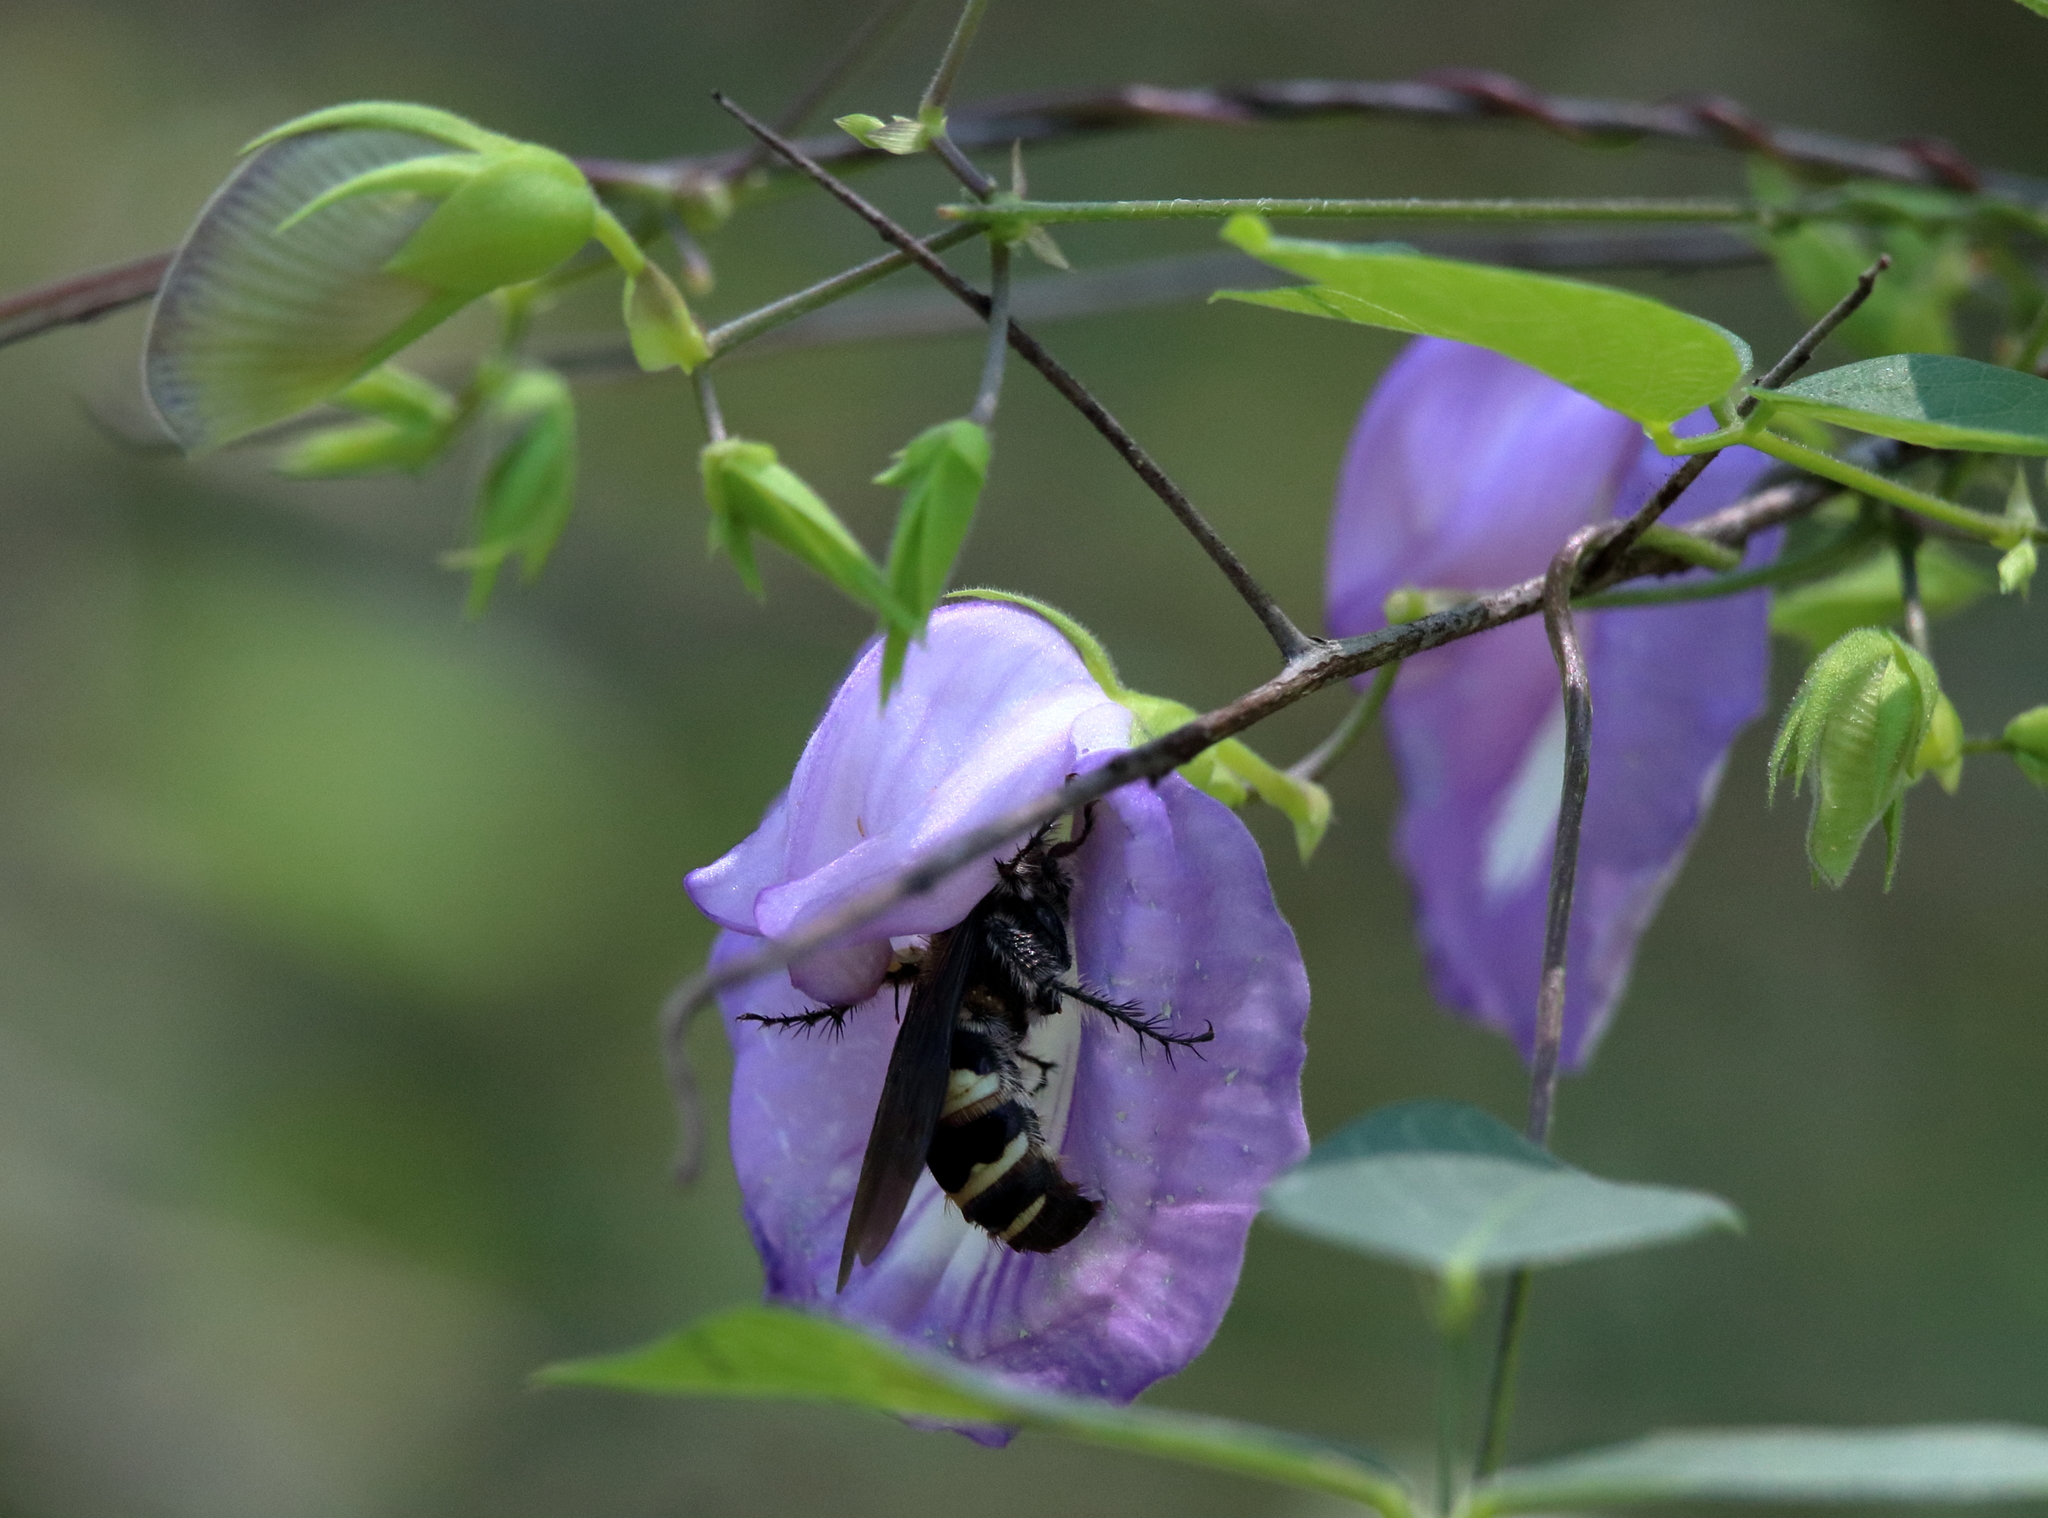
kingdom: Animalia
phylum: Arthropoda
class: Insecta
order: Hymenoptera
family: Scoliidae
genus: Dielis
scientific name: Dielis
